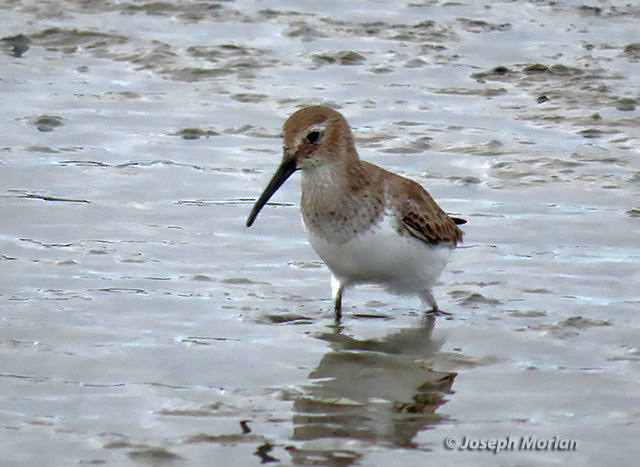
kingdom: Animalia
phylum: Chordata
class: Aves
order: Charadriiformes
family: Scolopacidae
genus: Calidris
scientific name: Calidris alpina
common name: Dunlin
